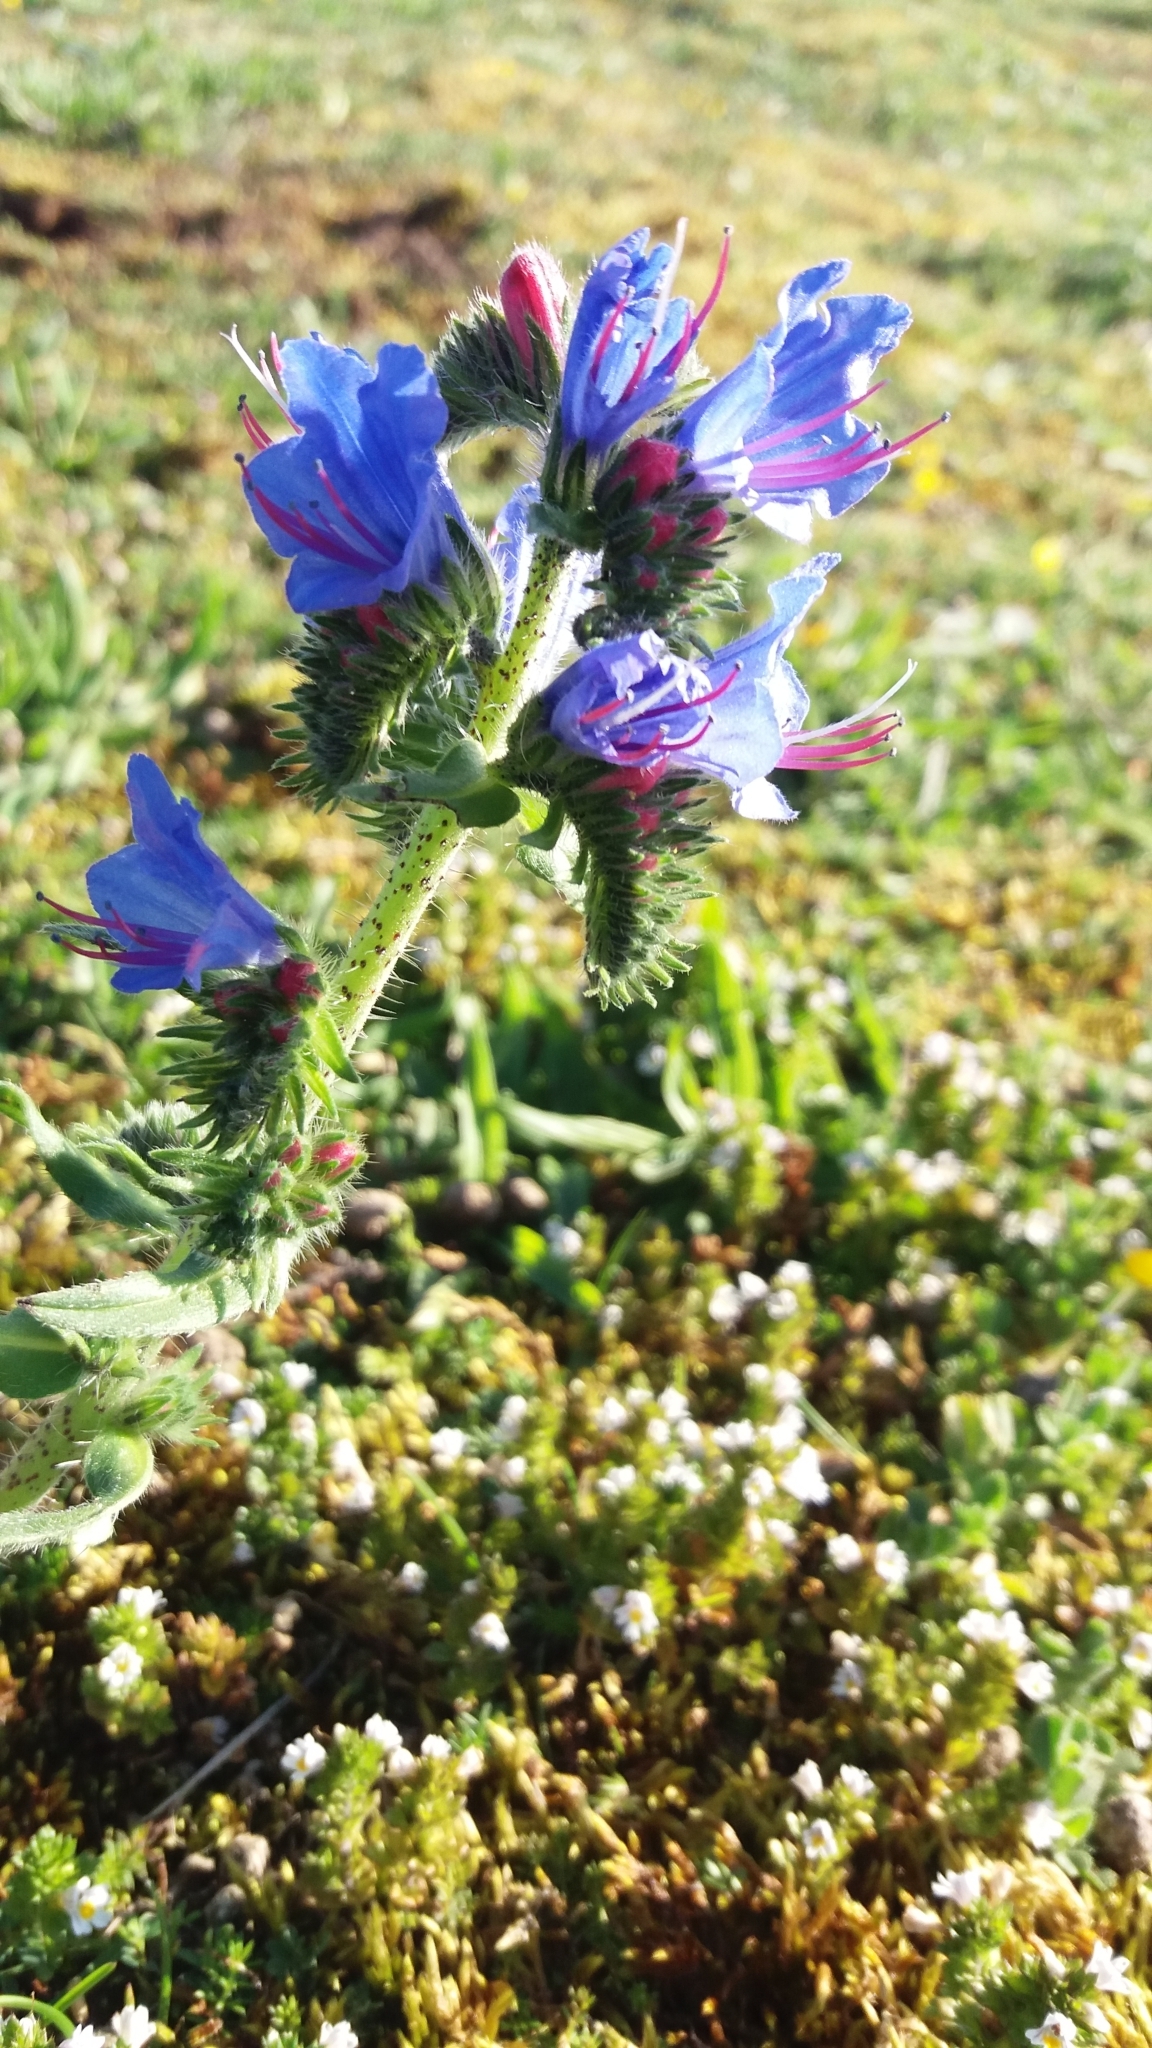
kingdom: Plantae
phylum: Tracheophyta
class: Magnoliopsida
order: Boraginales
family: Boraginaceae
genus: Echium
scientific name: Echium vulgare
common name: Common viper's bugloss
